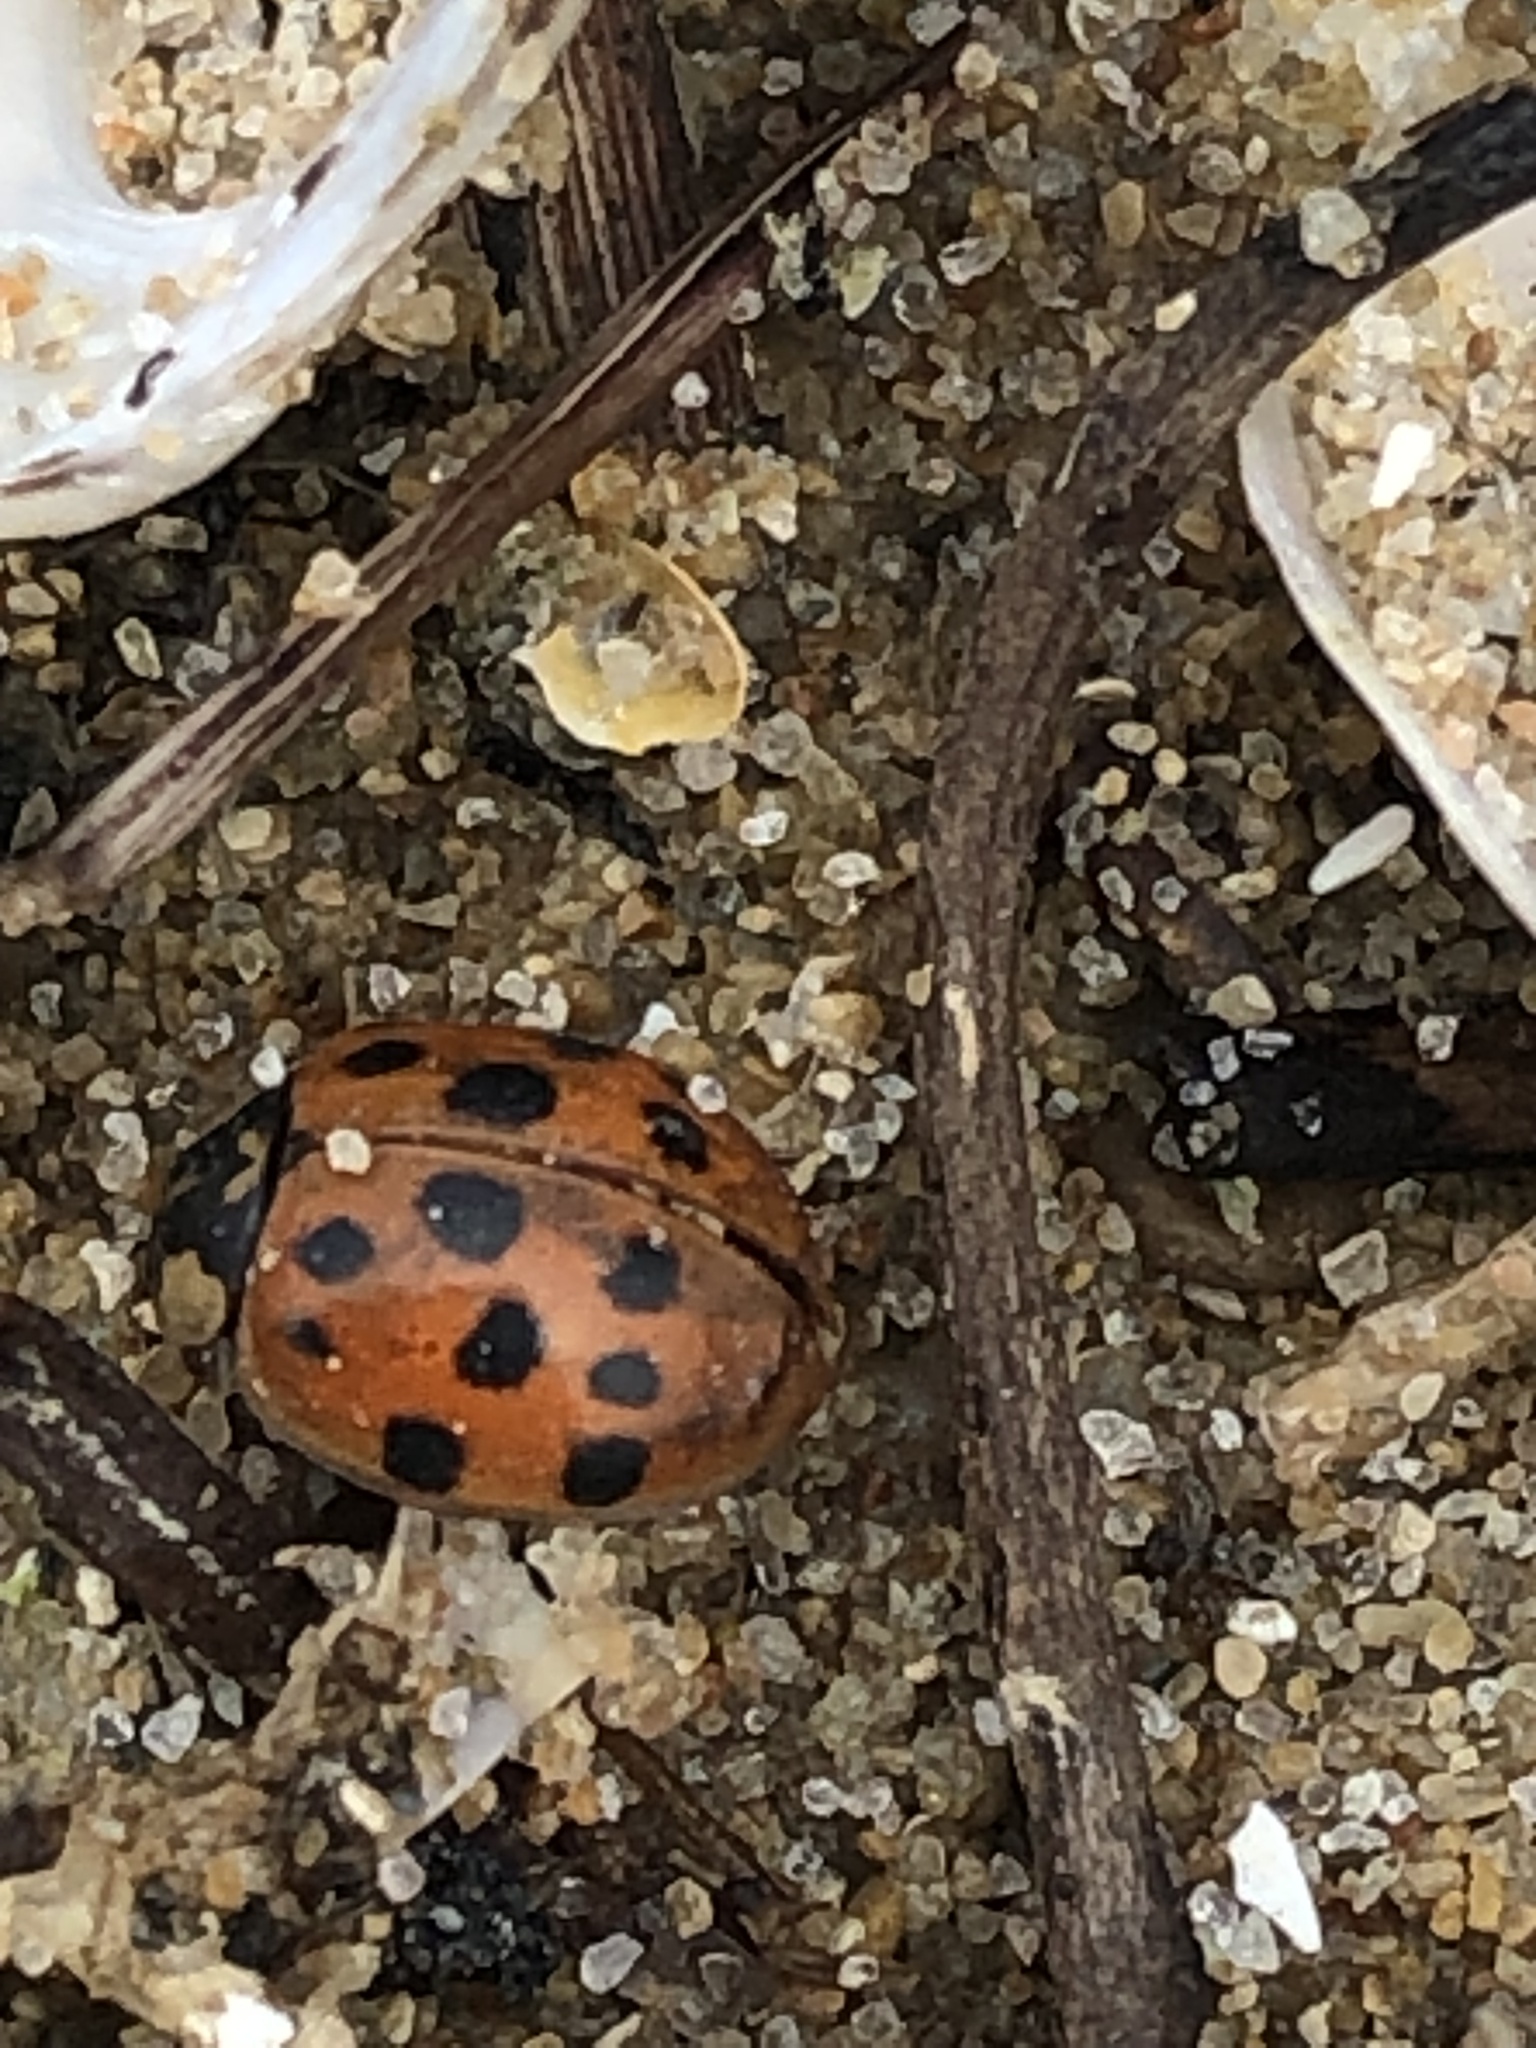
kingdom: Animalia
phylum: Arthropoda
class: Insecta
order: Coleoptera
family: Coccinellidae
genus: Harmonia
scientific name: Harmonia axyridis
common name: Harlequin ladybird
